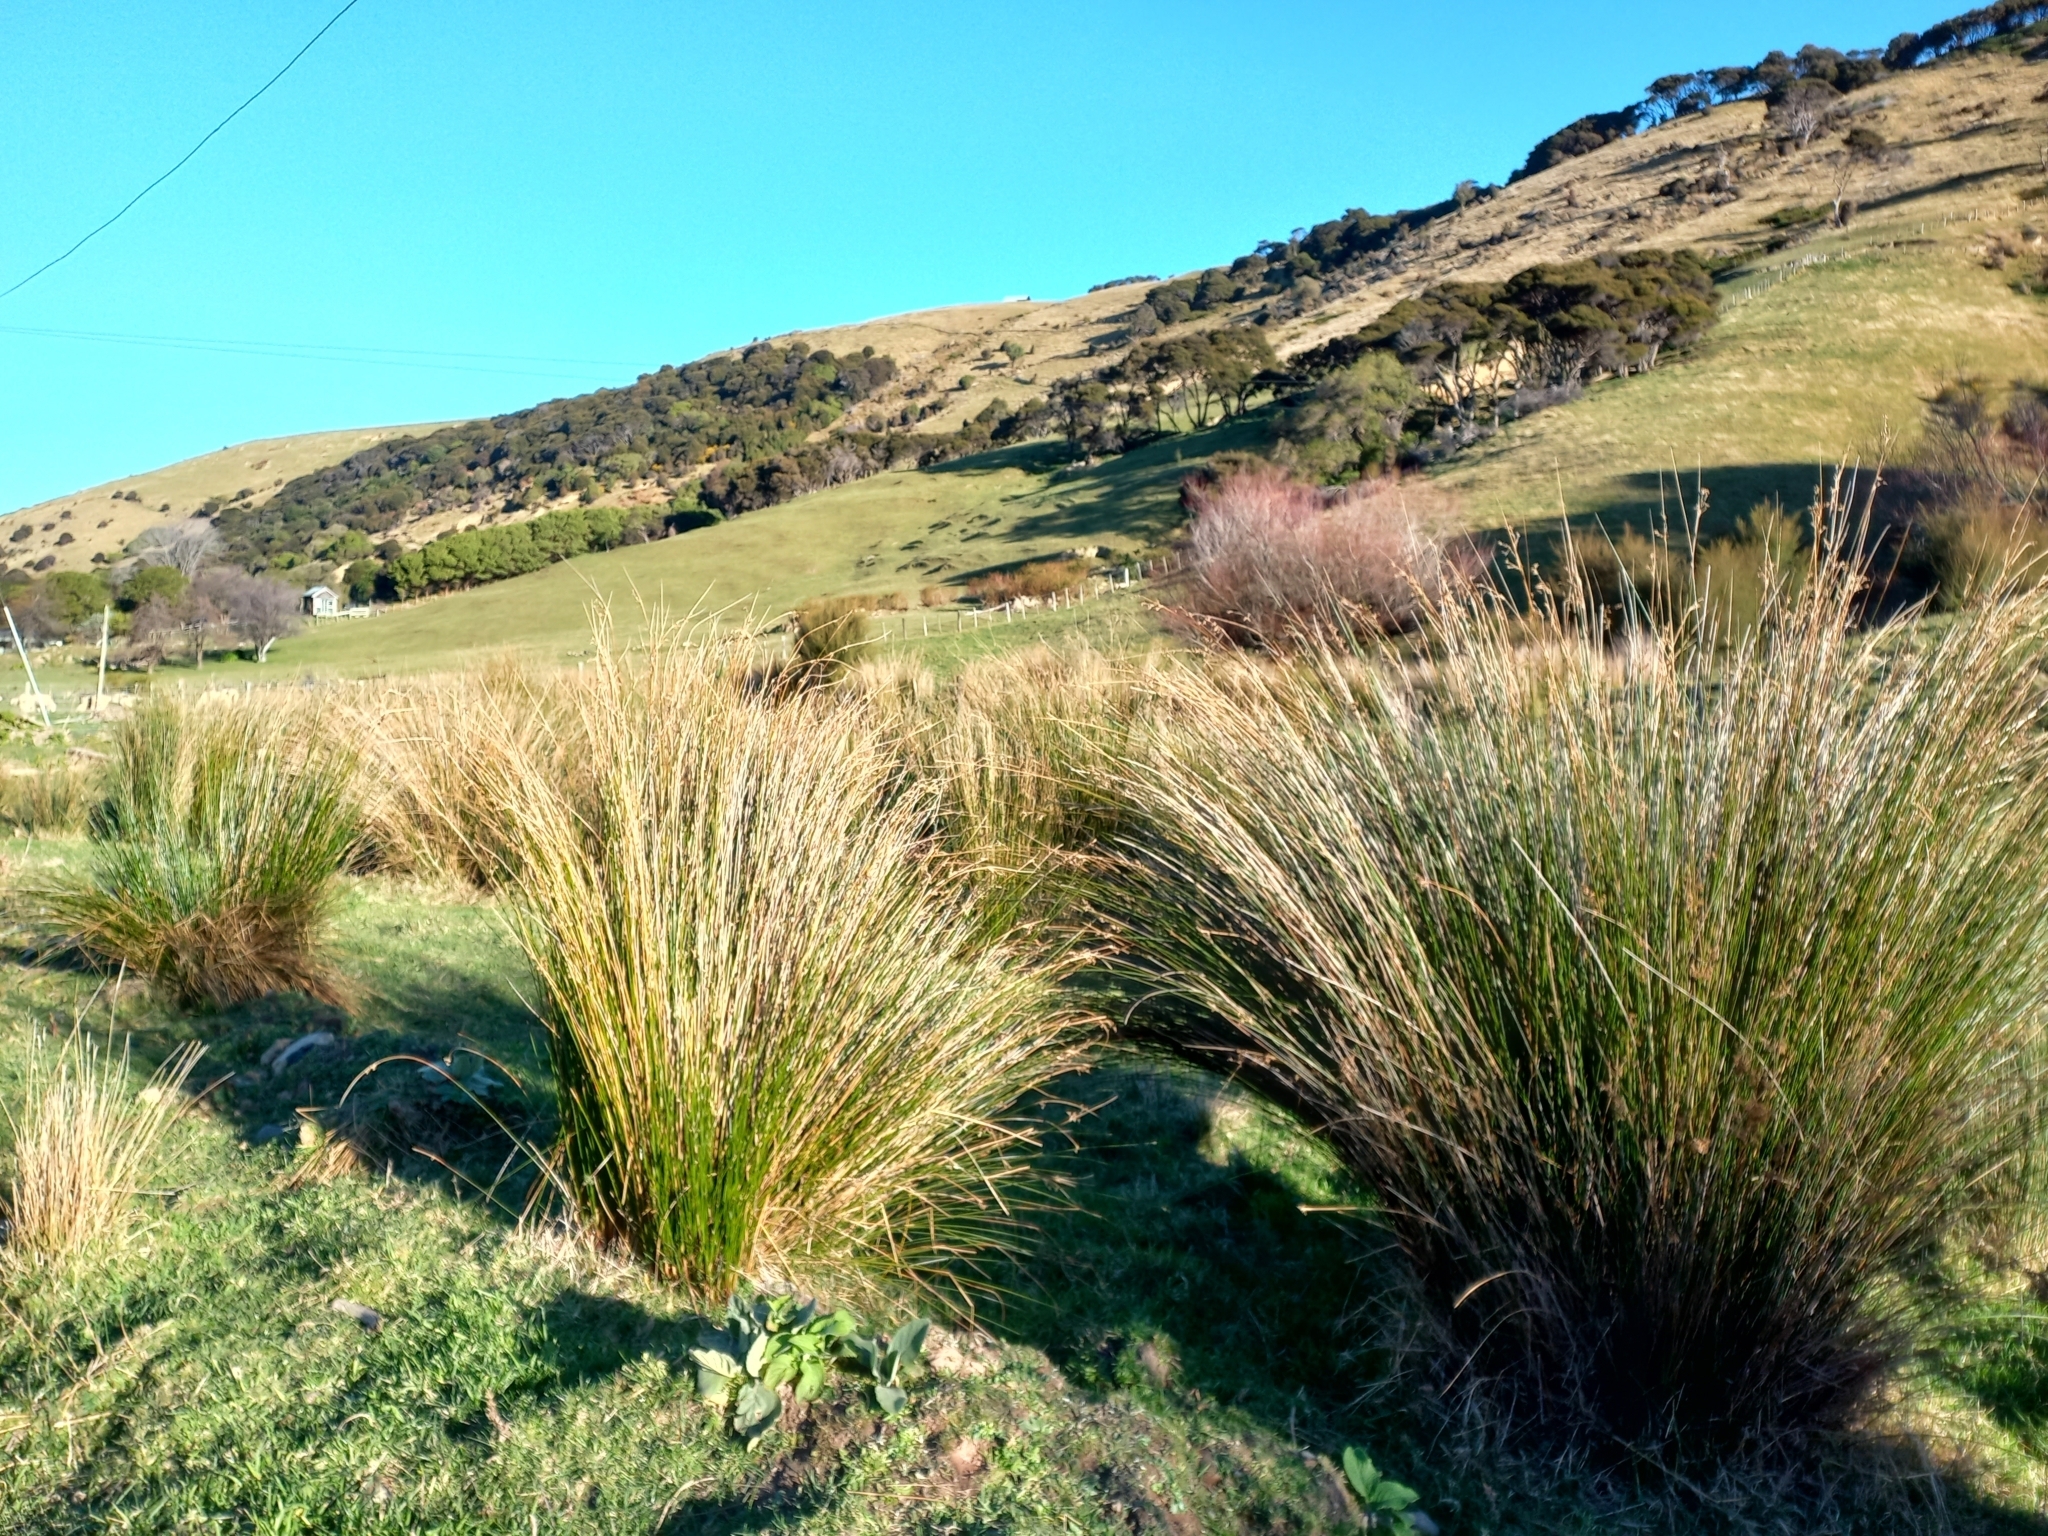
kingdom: Plantae
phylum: Tracheophyta
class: Liliopsida
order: Poales
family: Juncaceae
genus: Juncus
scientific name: Juncus edgariae
